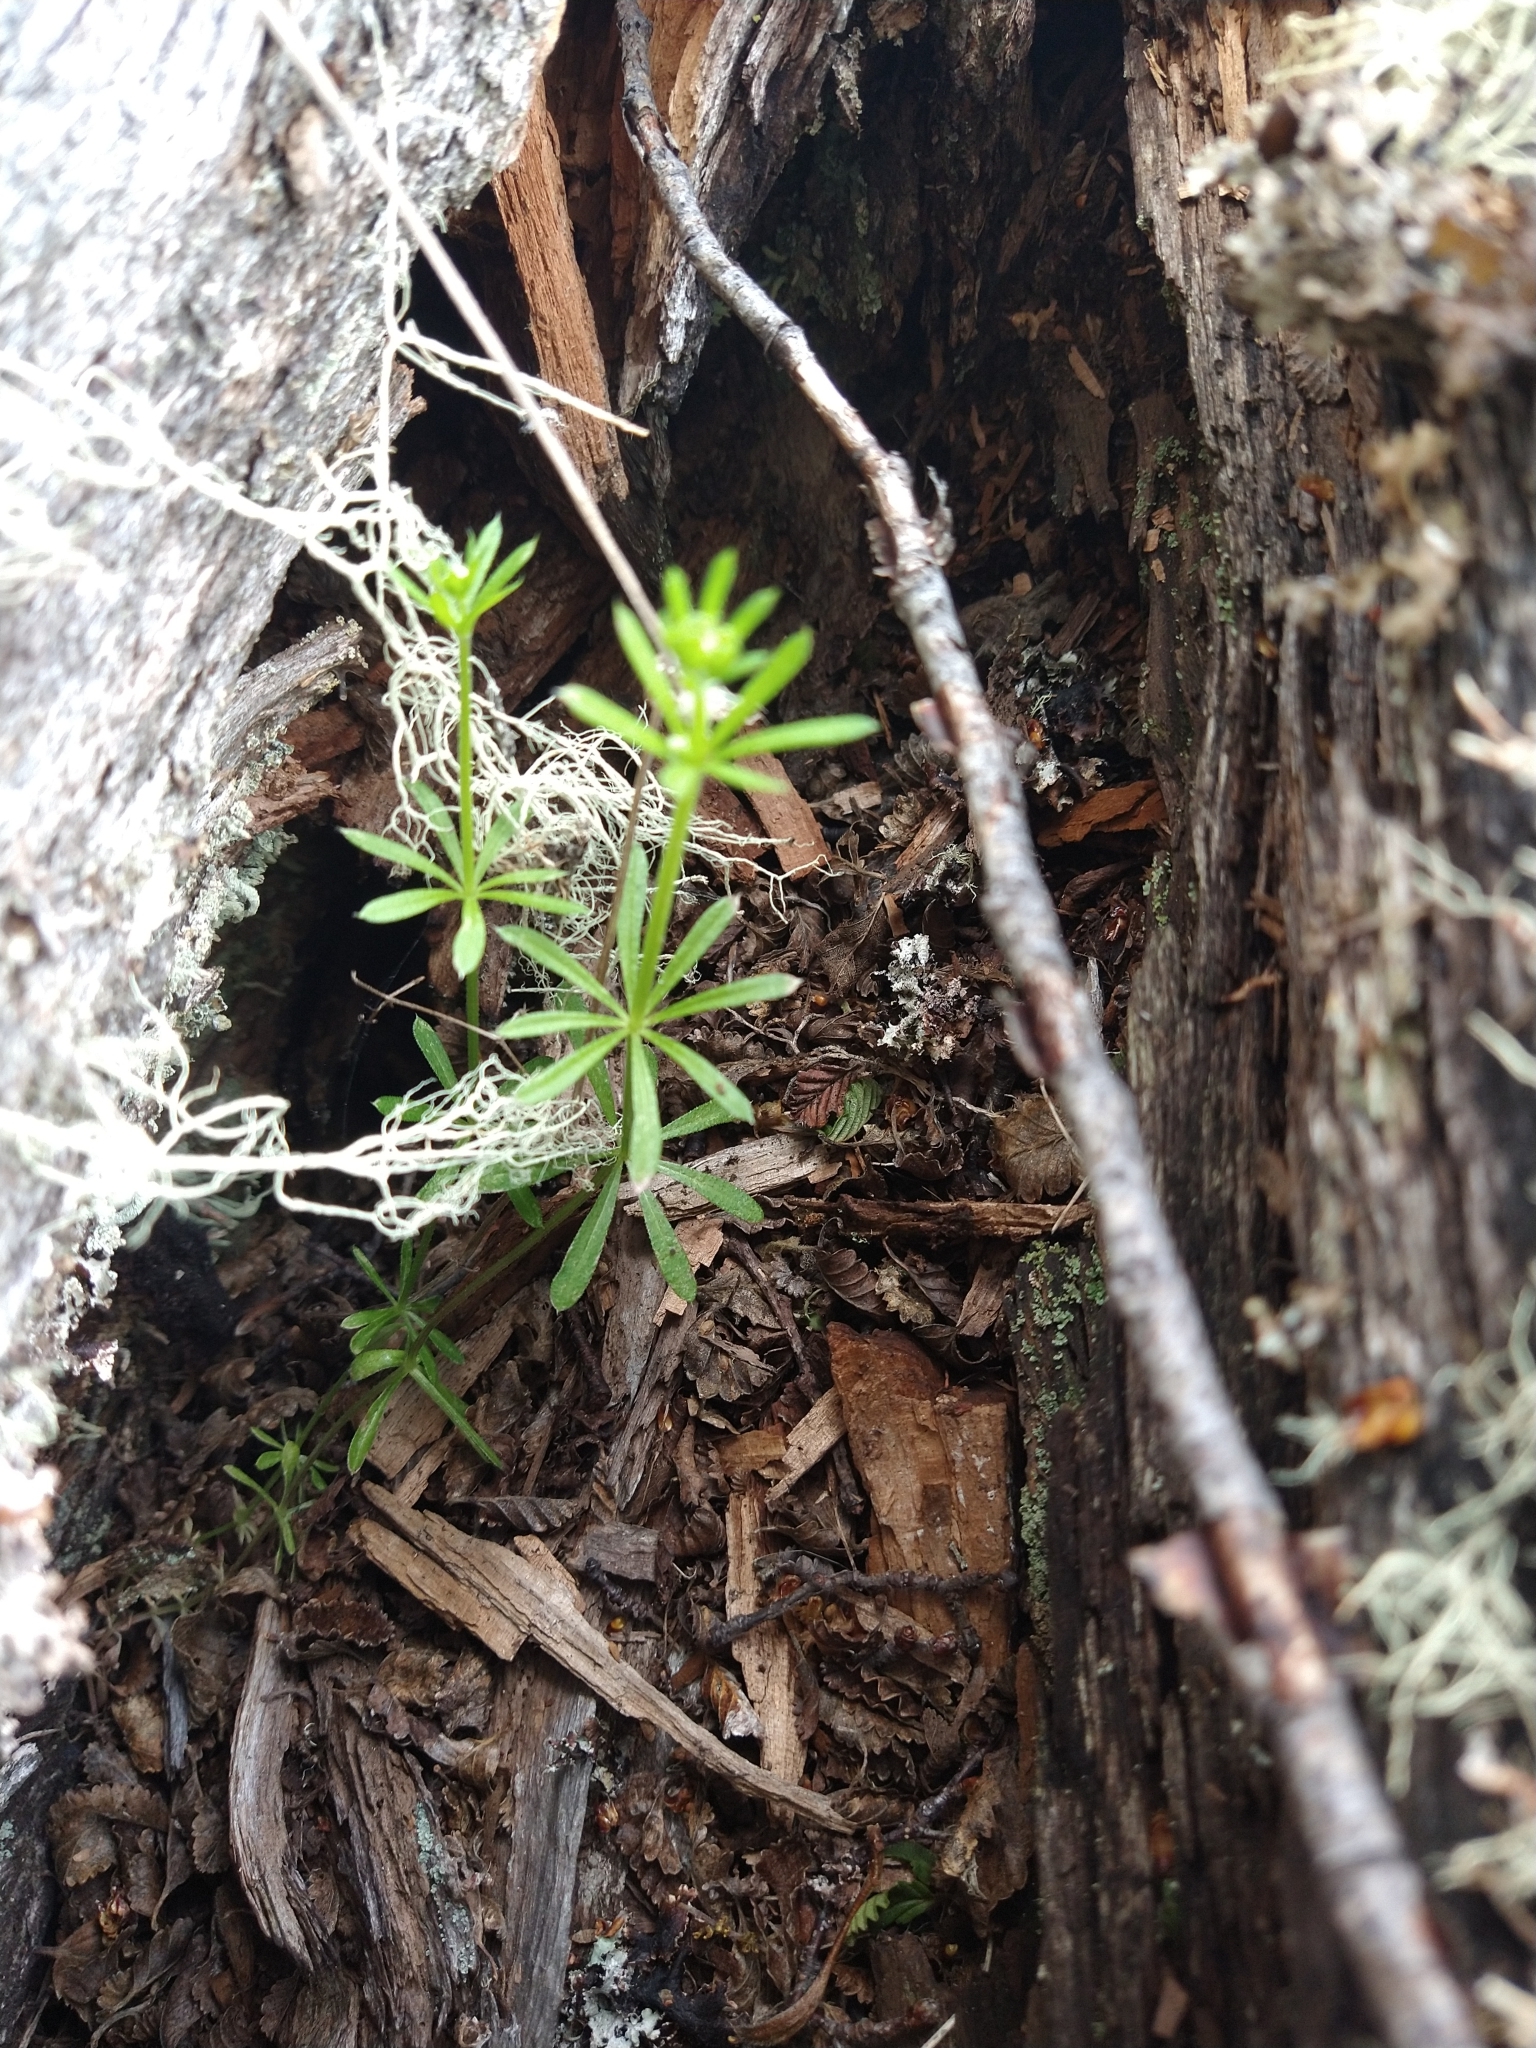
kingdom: Plantae
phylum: Tracheophyta
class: Magnoliopsida
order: Gentianales
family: Rubiaceae
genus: Galium
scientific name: Galium aparine
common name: Cleavers
